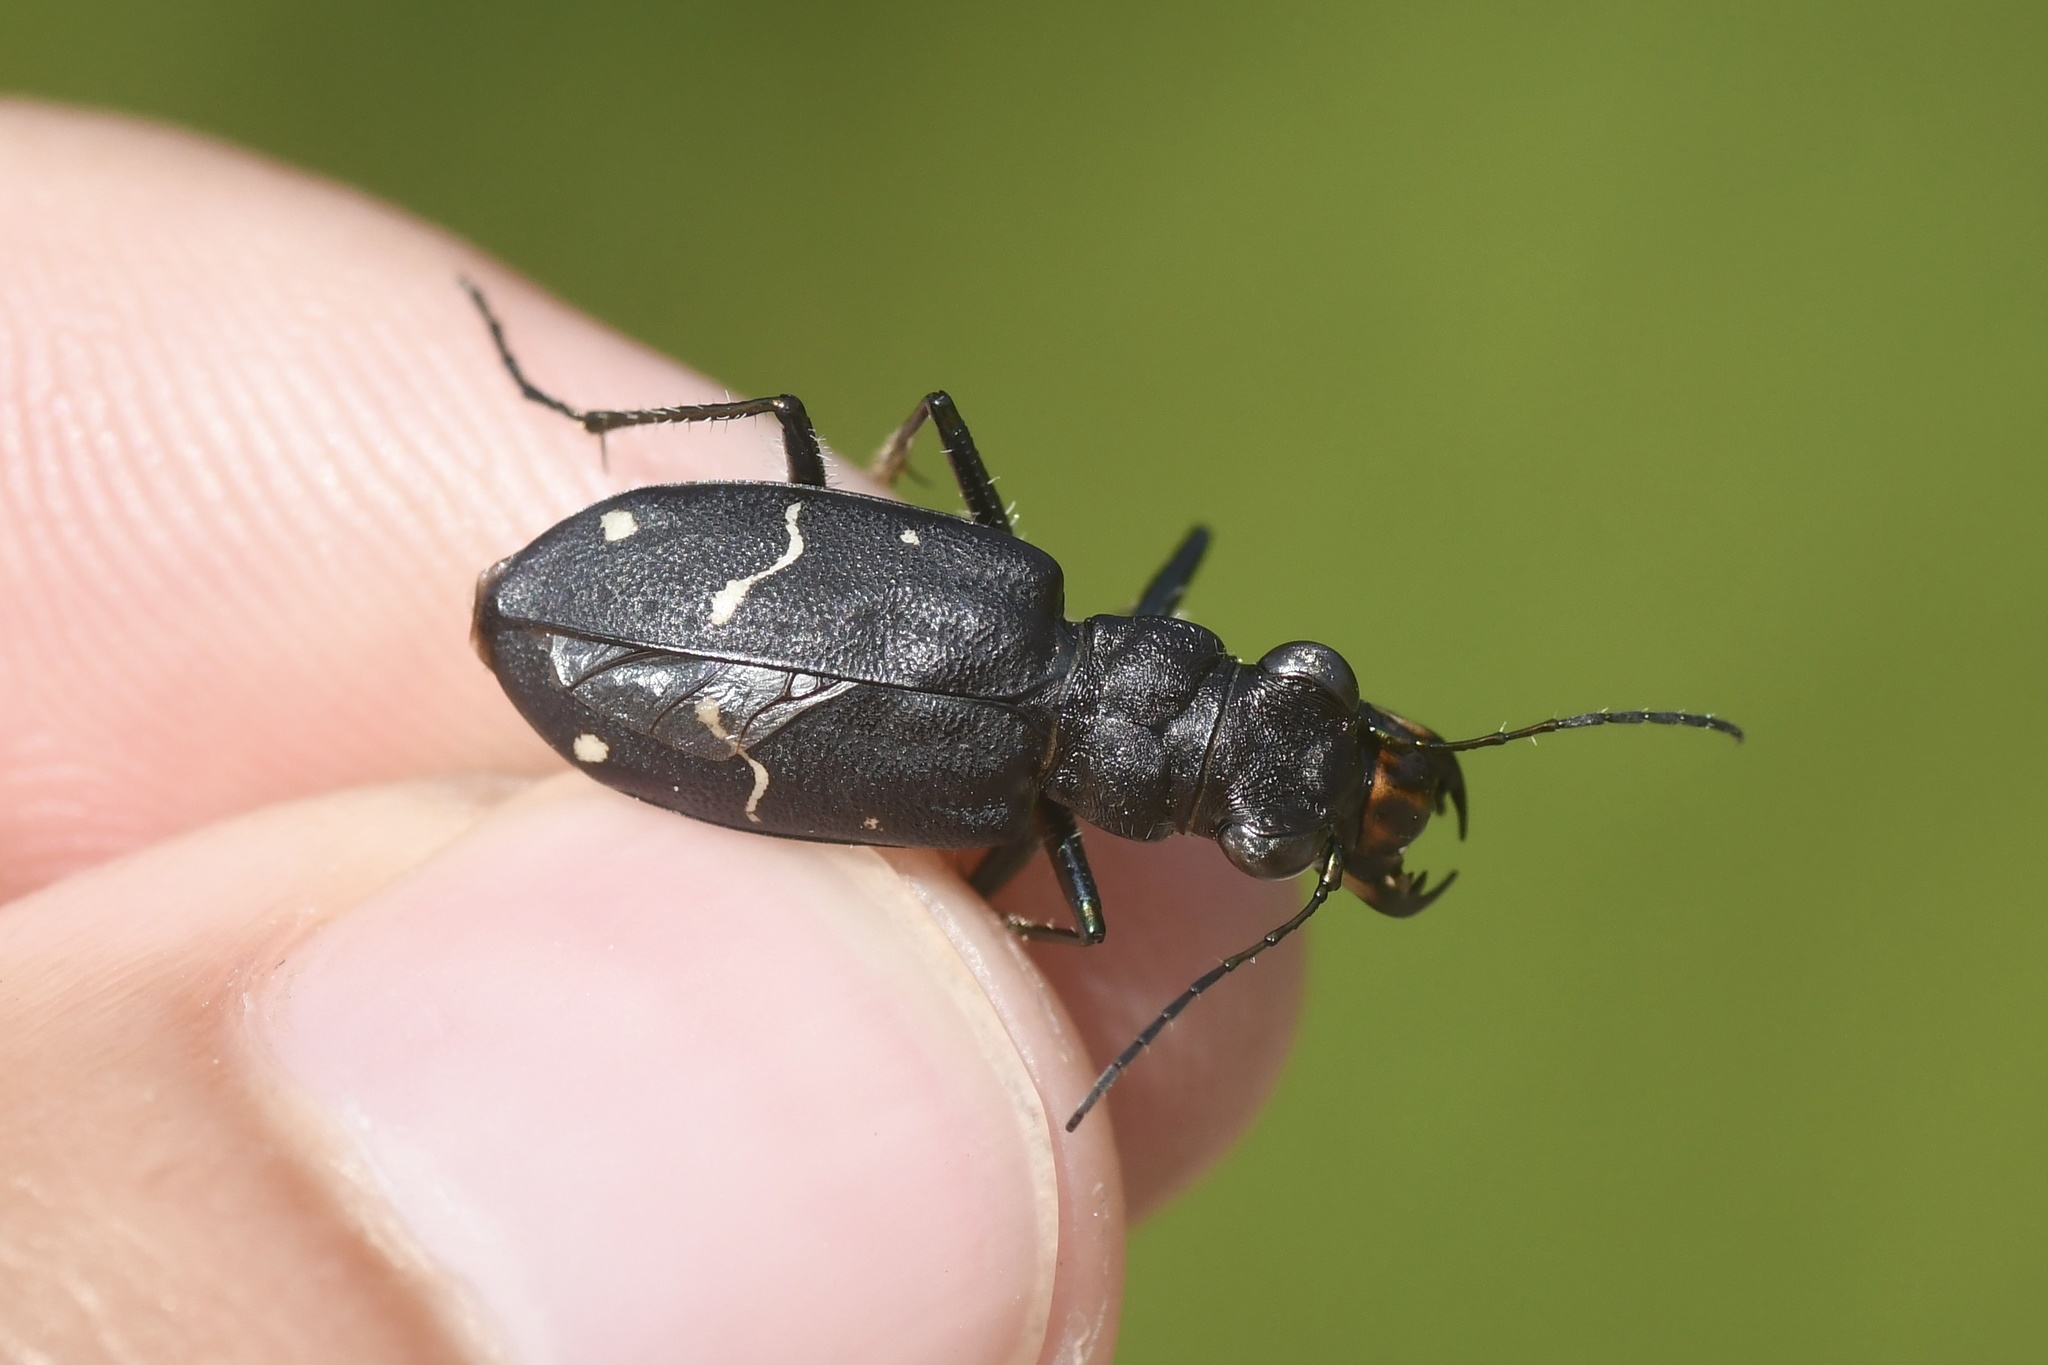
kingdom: Animalia
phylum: Arthropoda
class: Insecta
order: Coleoptera
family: Carabidae
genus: Cicindela
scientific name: Cicindela longilabris
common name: Boreal long-lipped tiger beetle
